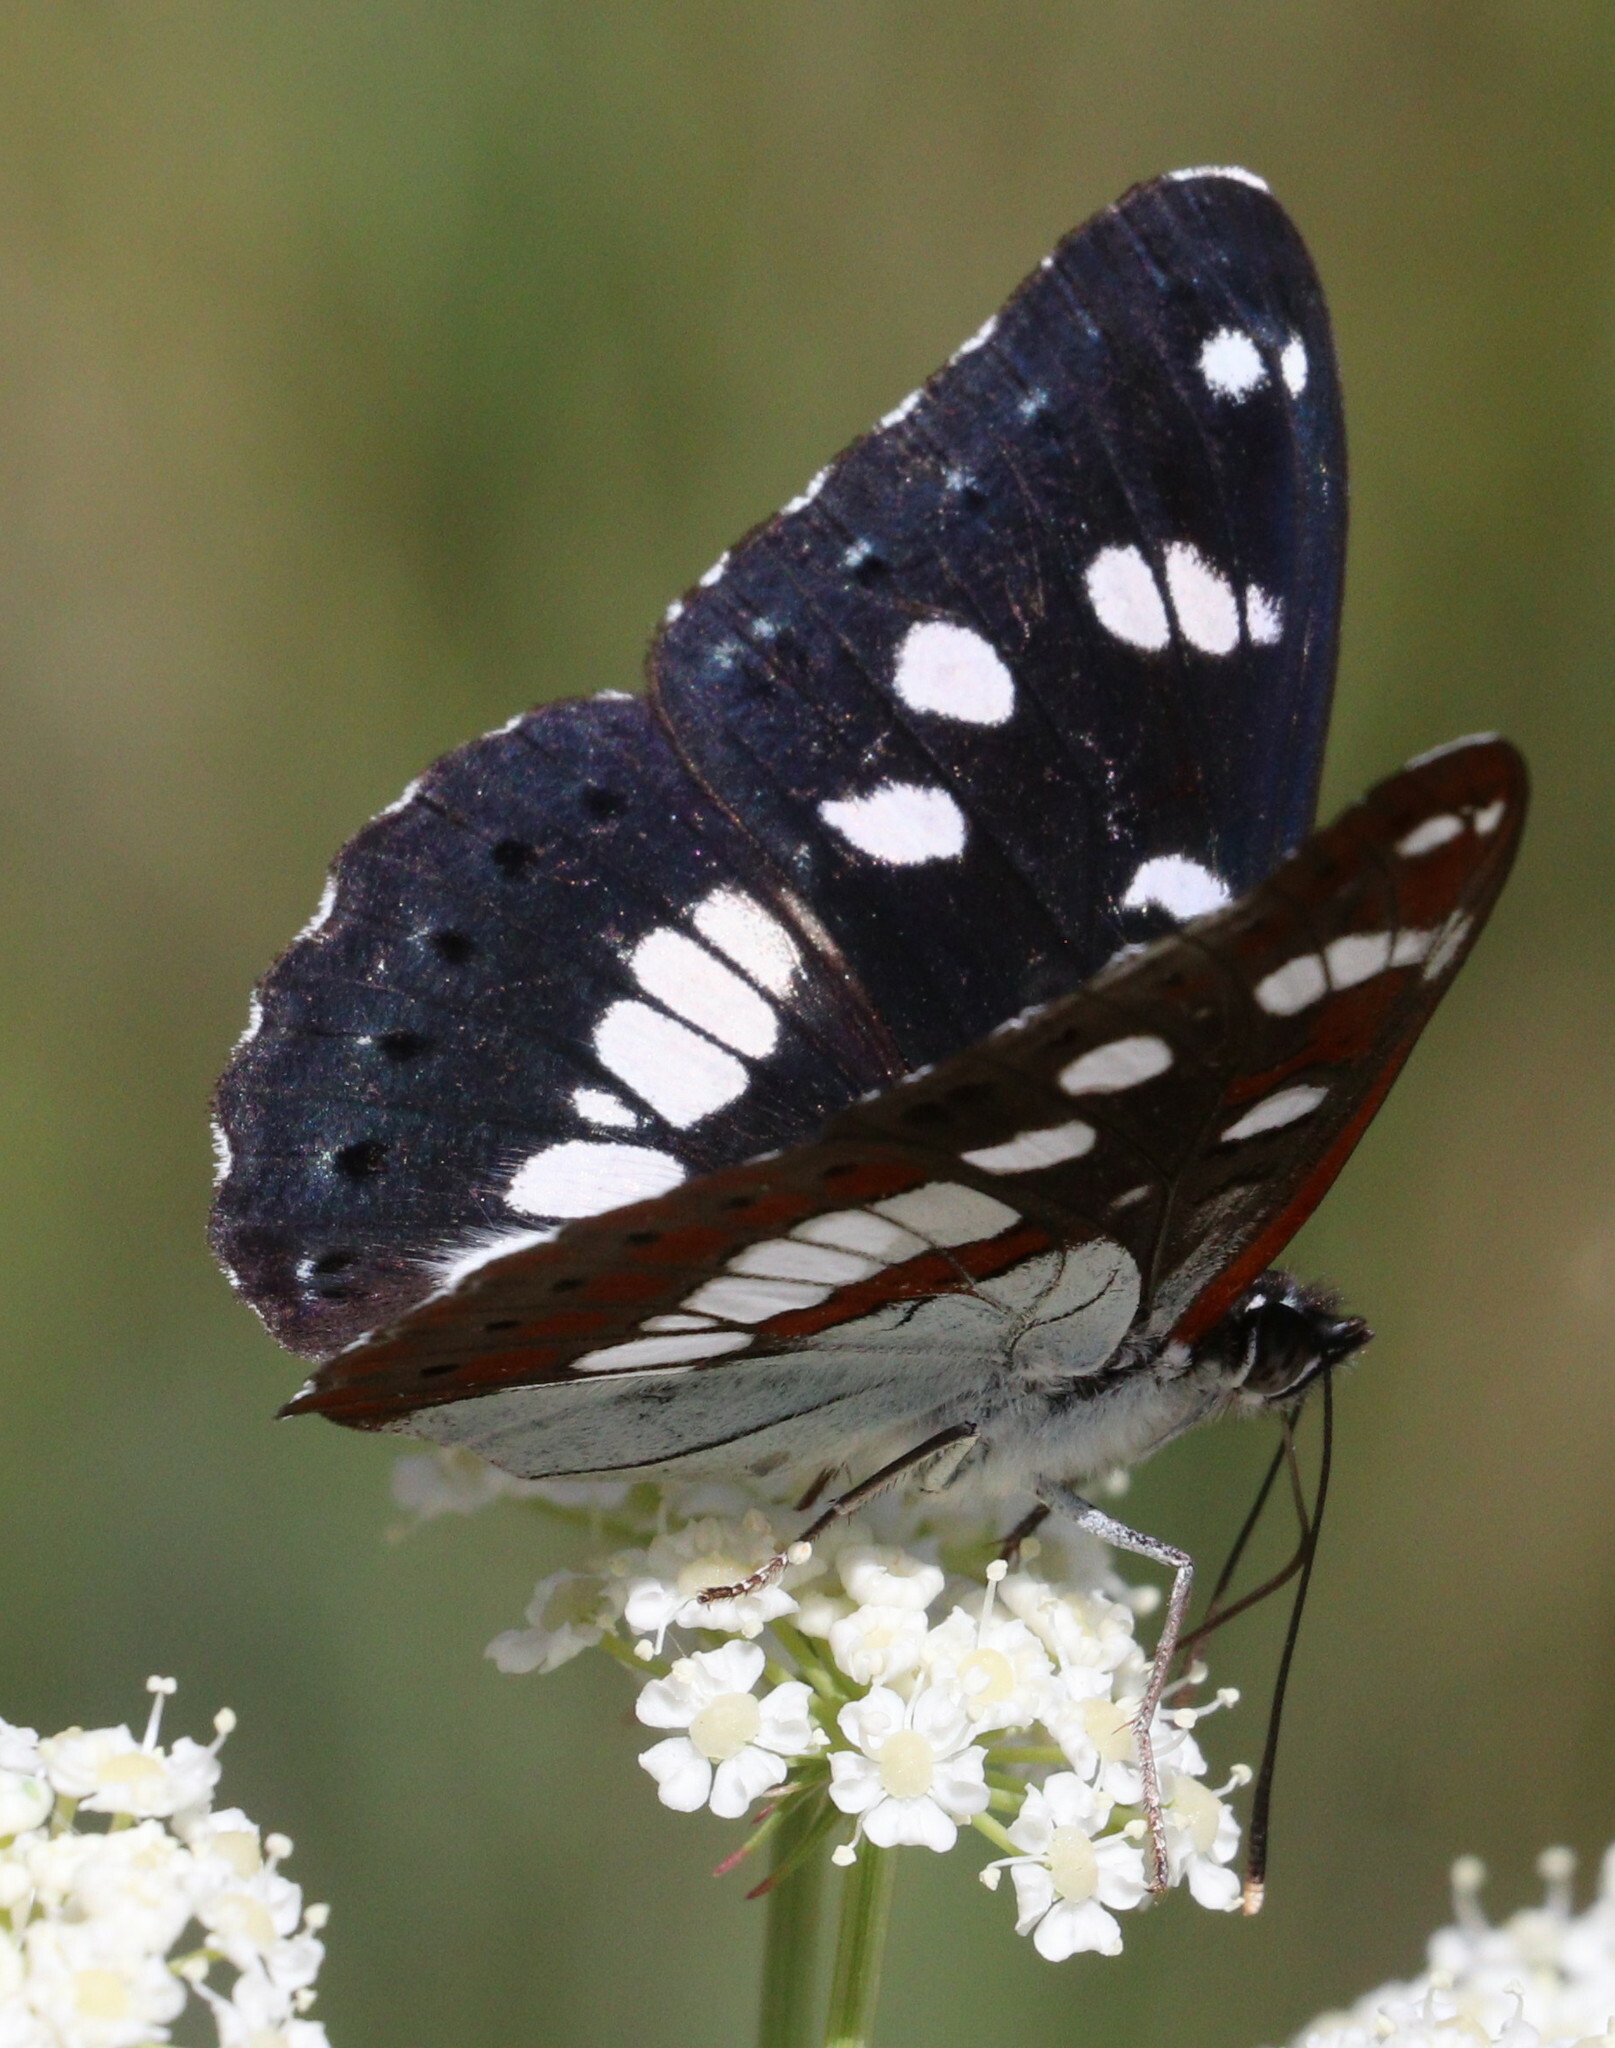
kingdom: Animalia
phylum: Arthropoda
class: Insecta
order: Lepidoptera
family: Nymphalidae
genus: Limenitis
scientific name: Limenitis reducta
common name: Southern white admiral
